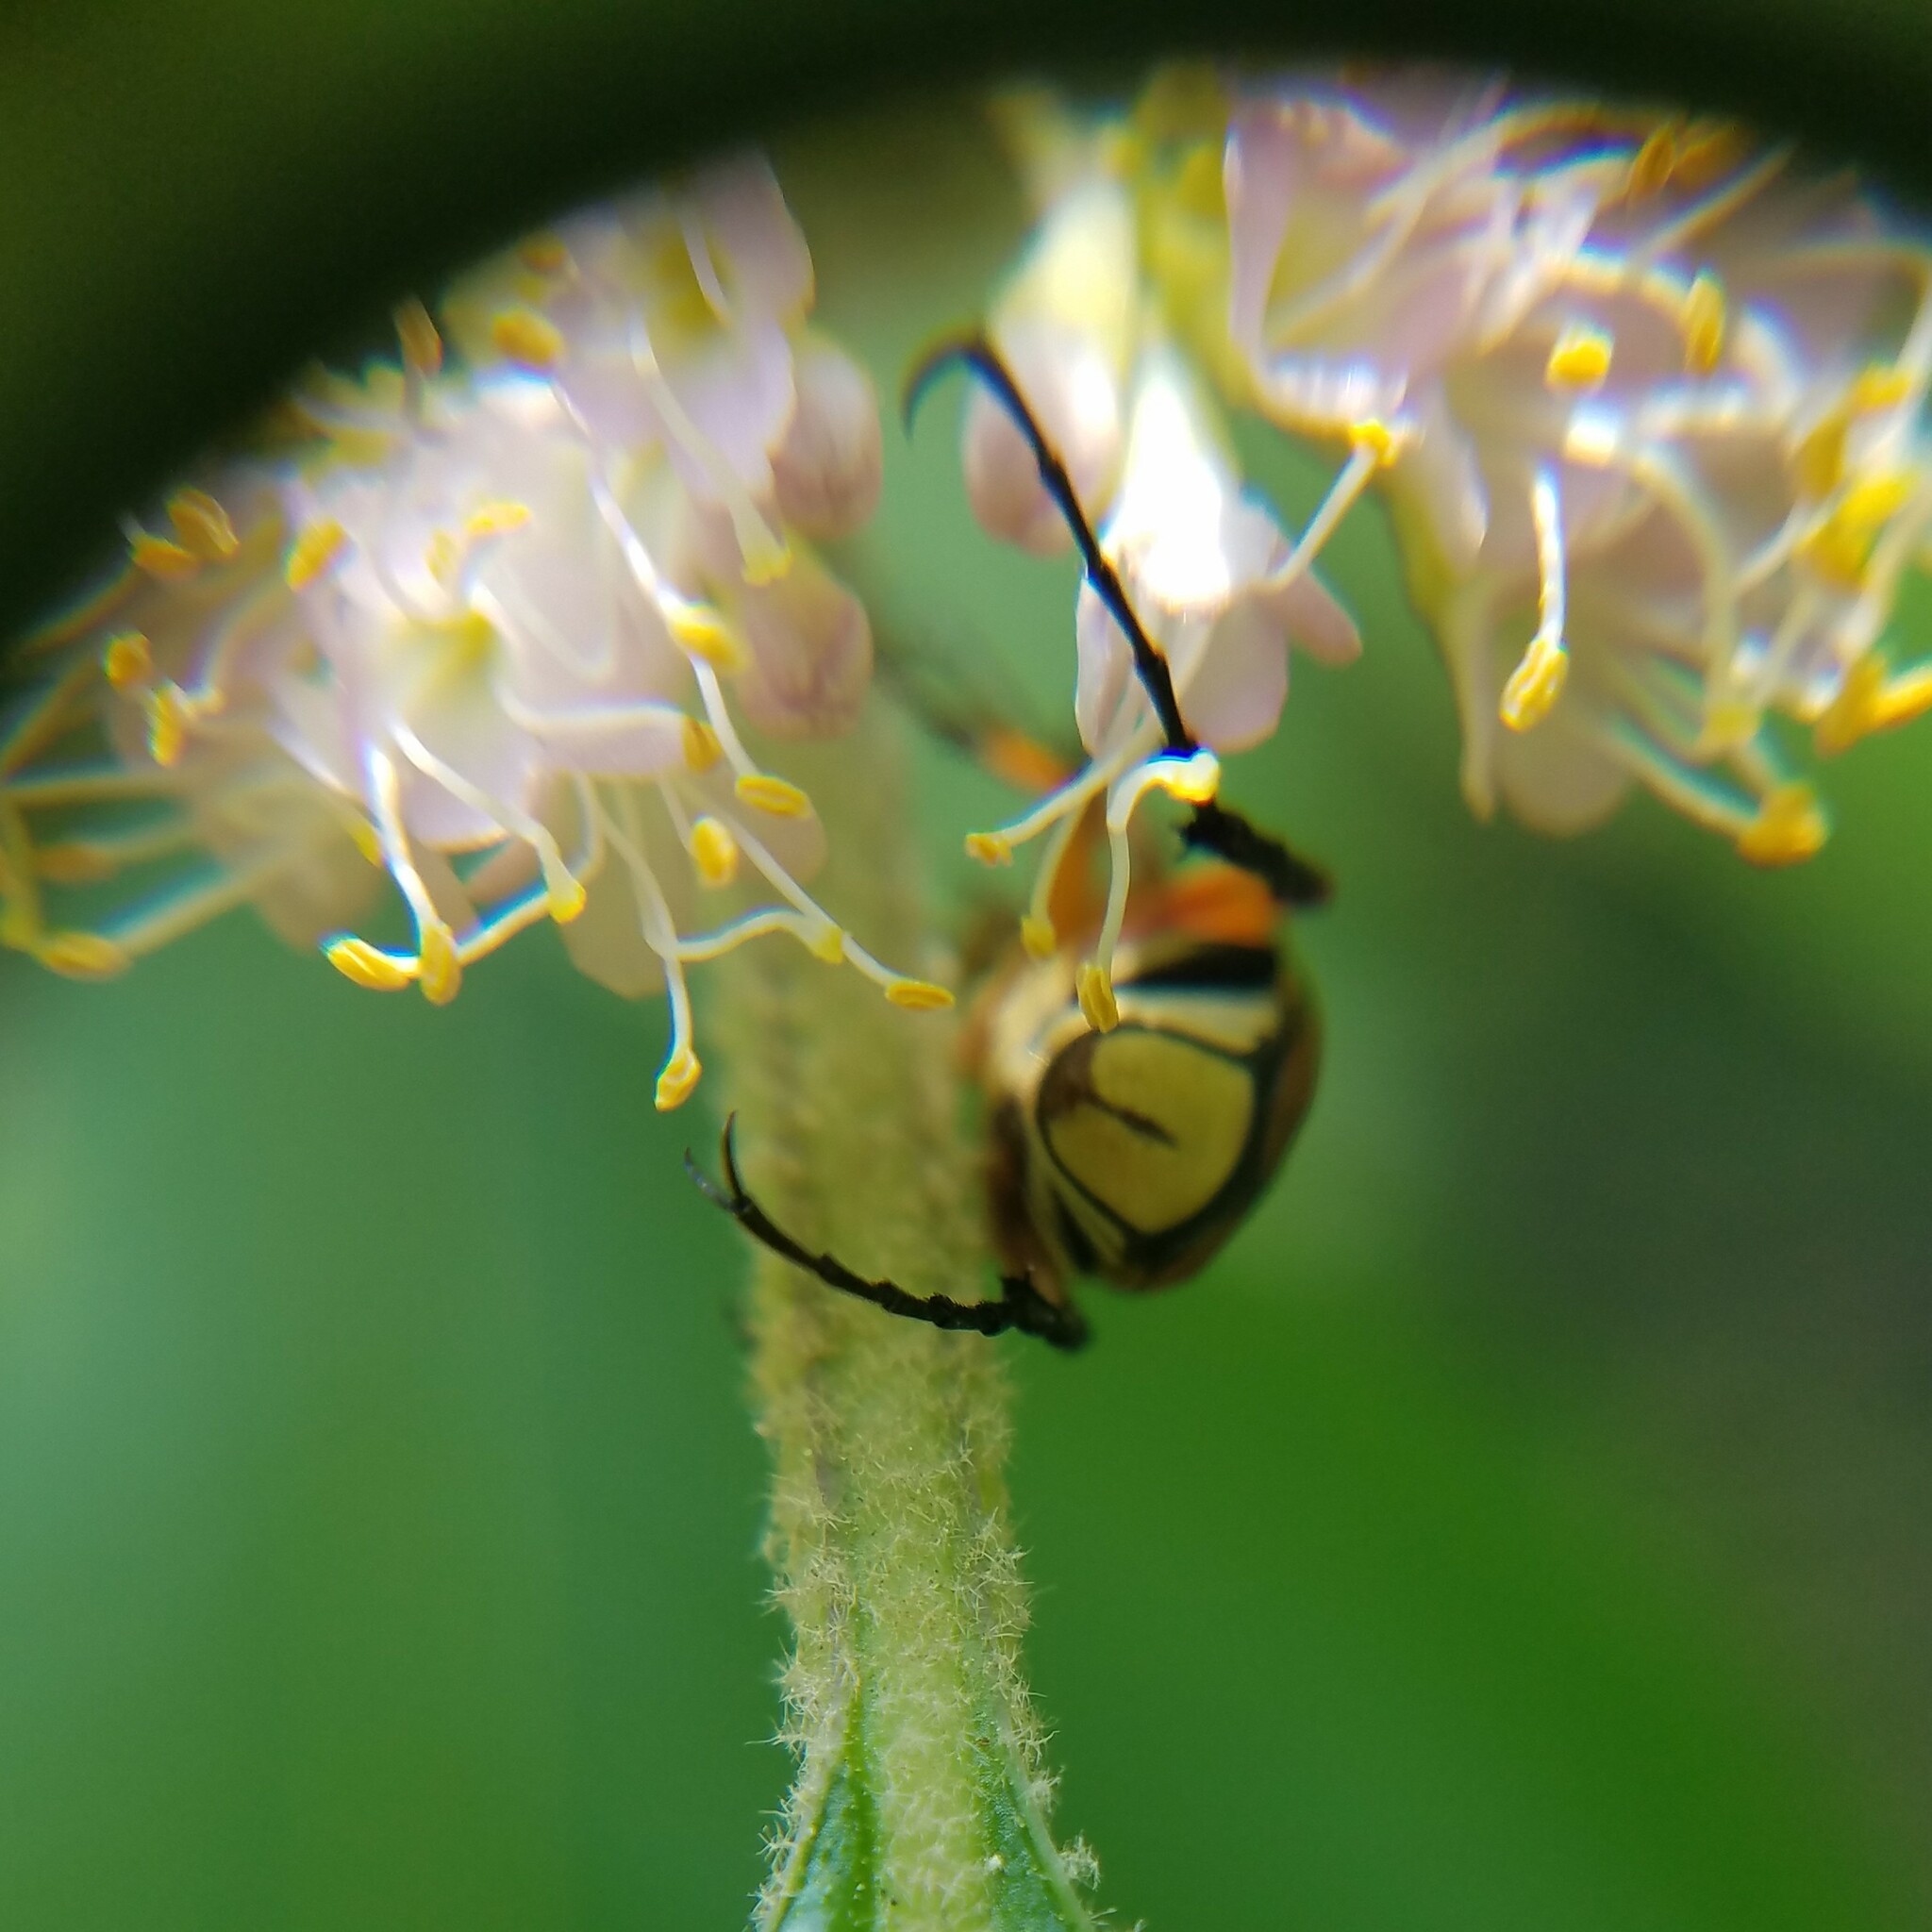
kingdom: Animalia
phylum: Arthropoda
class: Insecta
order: Coleoptera
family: Scarabaeidae
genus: Trigonopeltastes
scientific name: Trigonopeltastes delta
